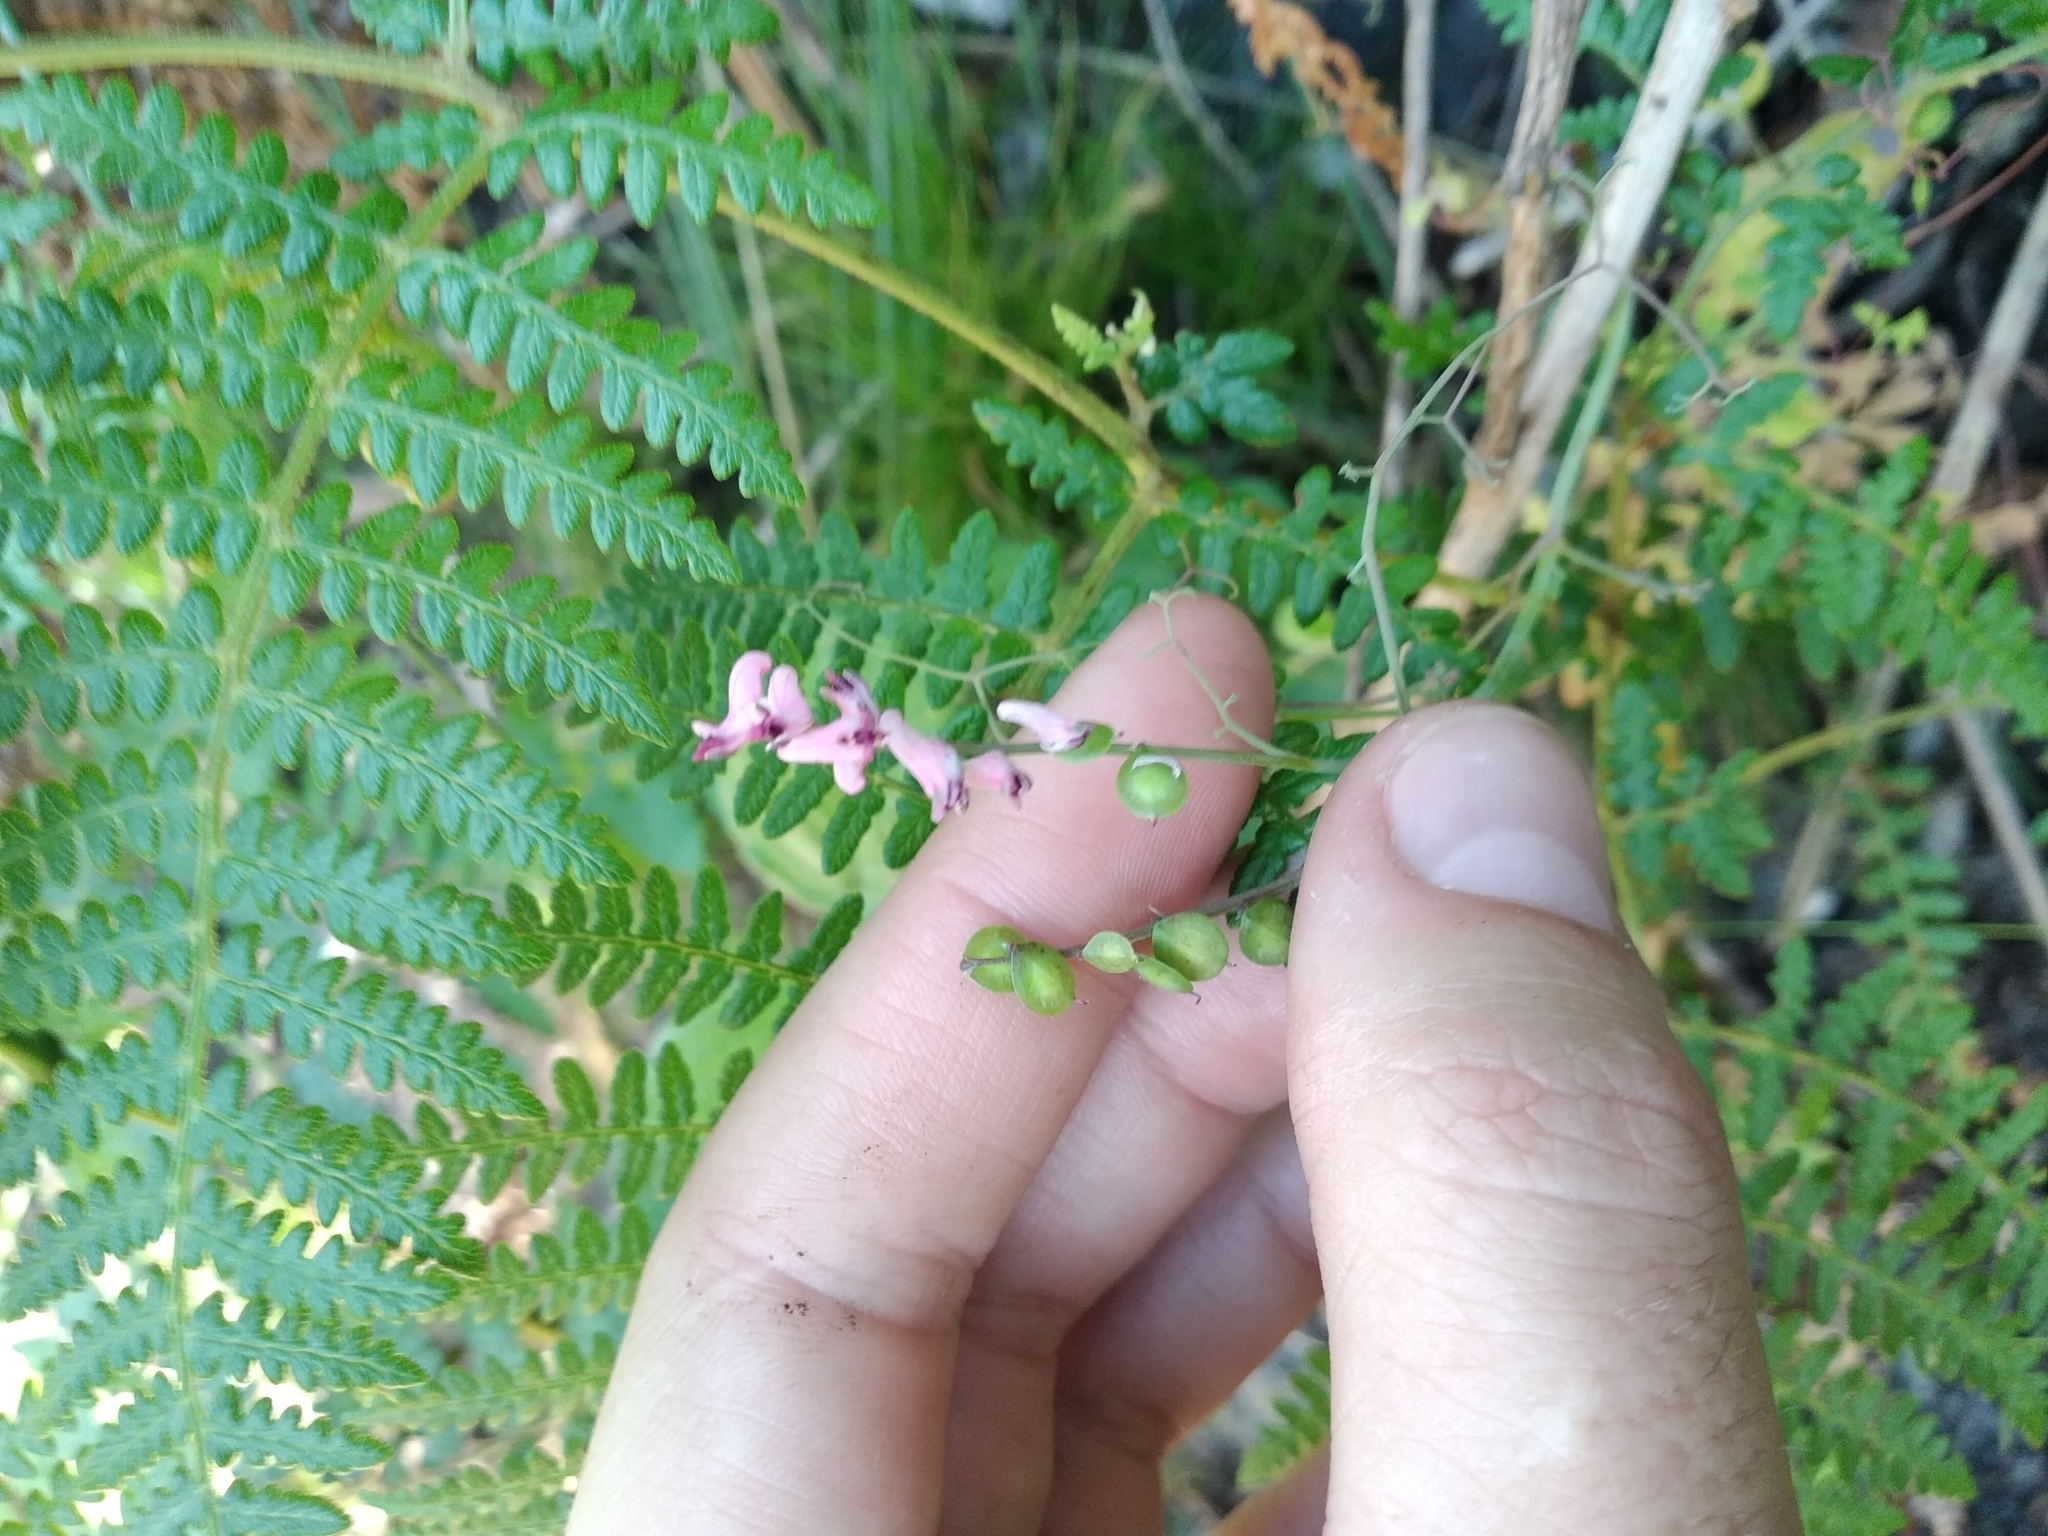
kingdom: Plantae
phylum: Tracheophyta
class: Magnoliopsida
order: Ranunculales
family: Papaveraceae
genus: Discocapnos
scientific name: Discocapnos mundti
